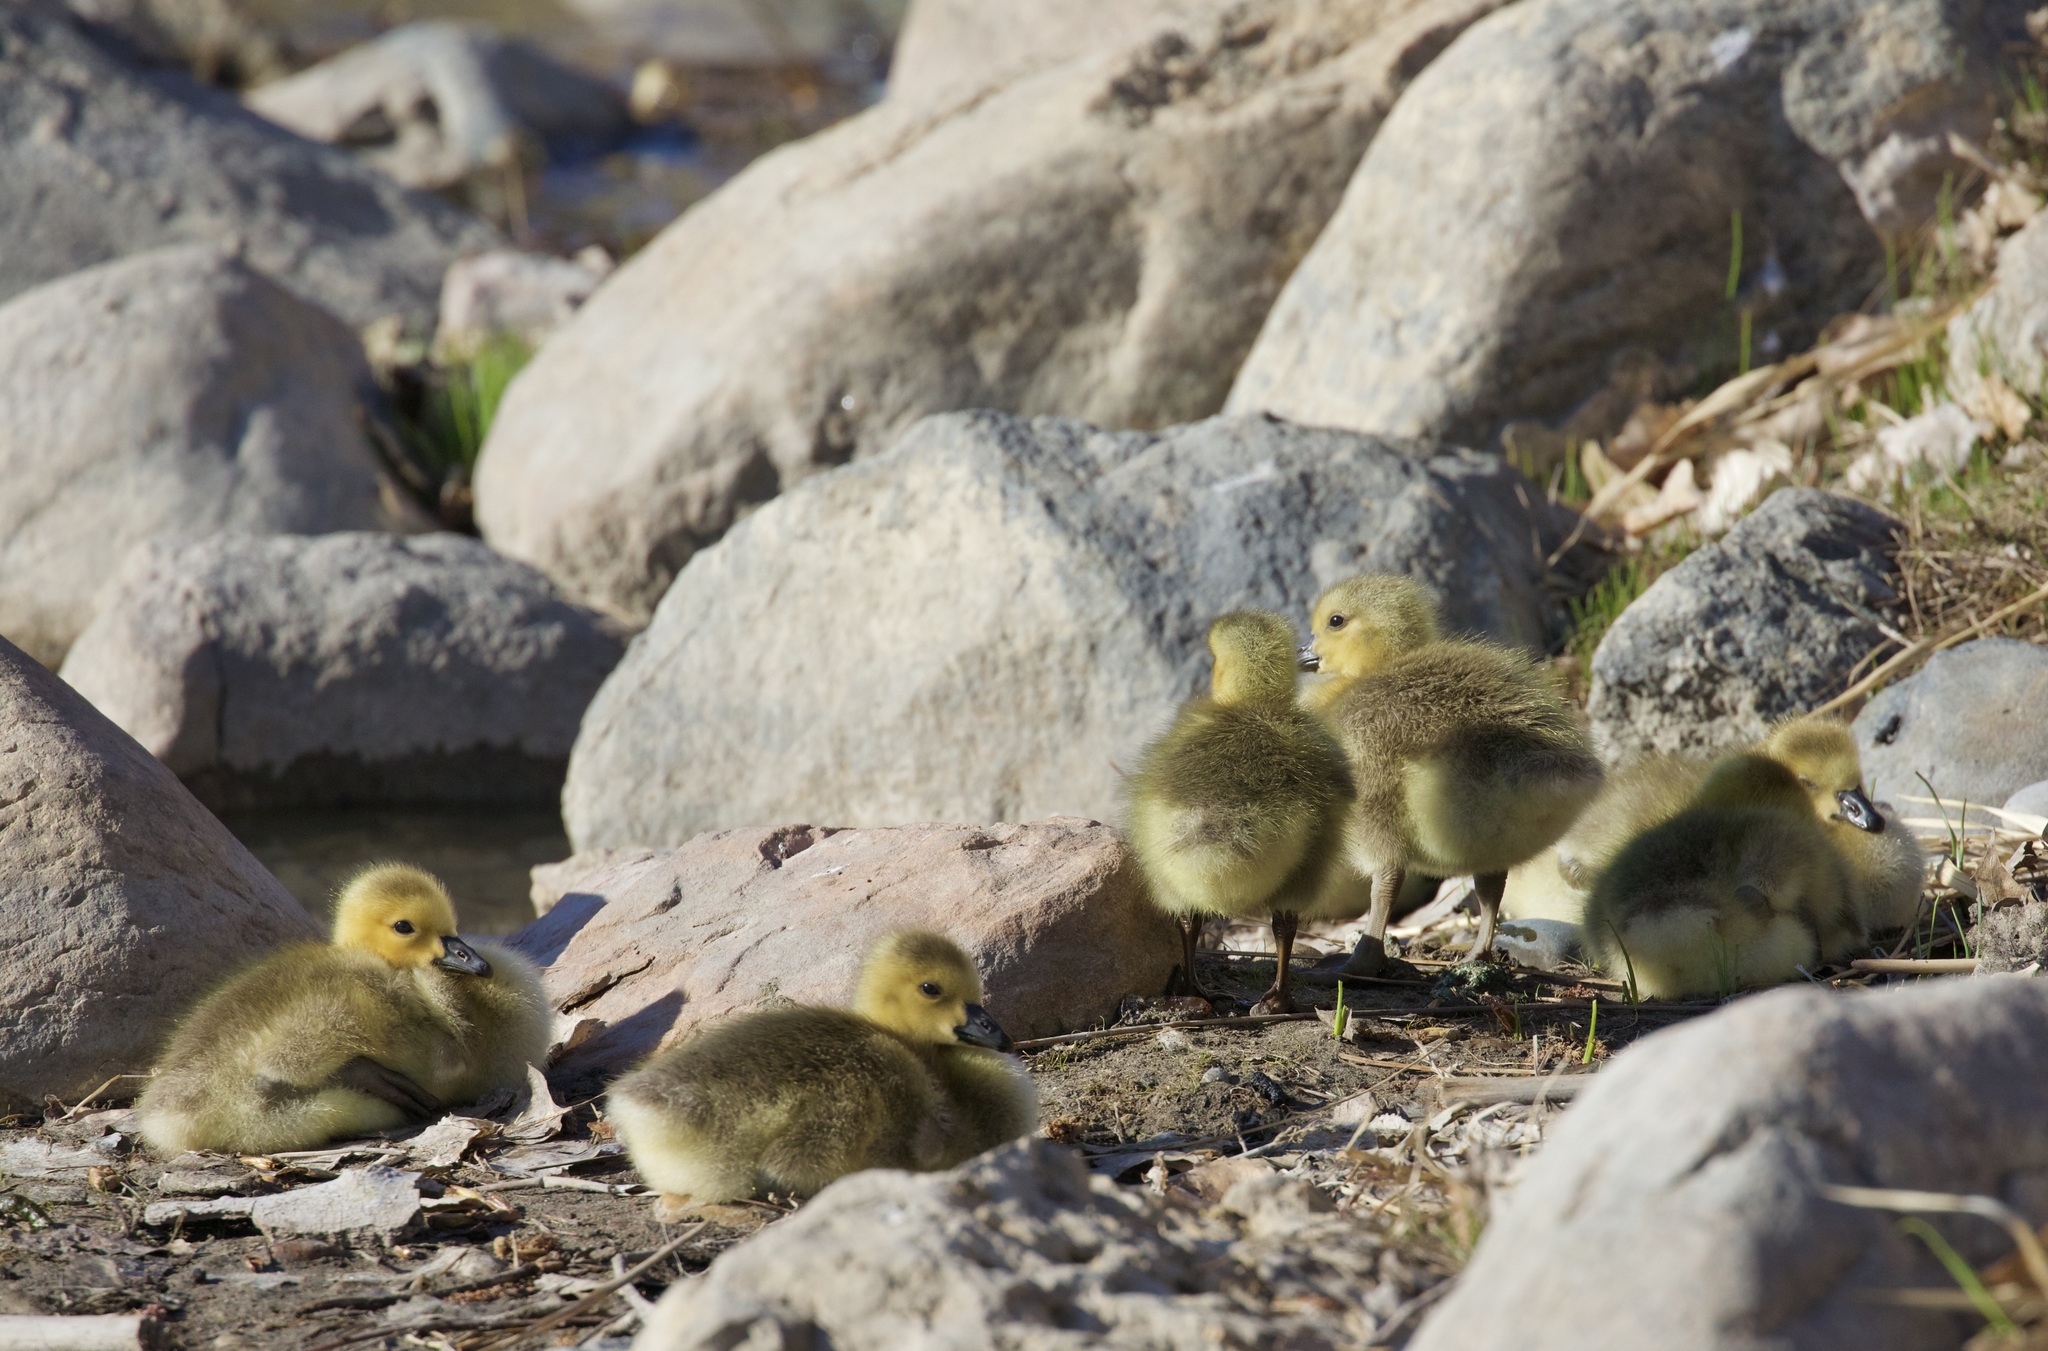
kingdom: Animalia
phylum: Chordata
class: Aves
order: Anseriformes
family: Anatidae
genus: Branta
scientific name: Branta canadensis
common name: Canada goose
